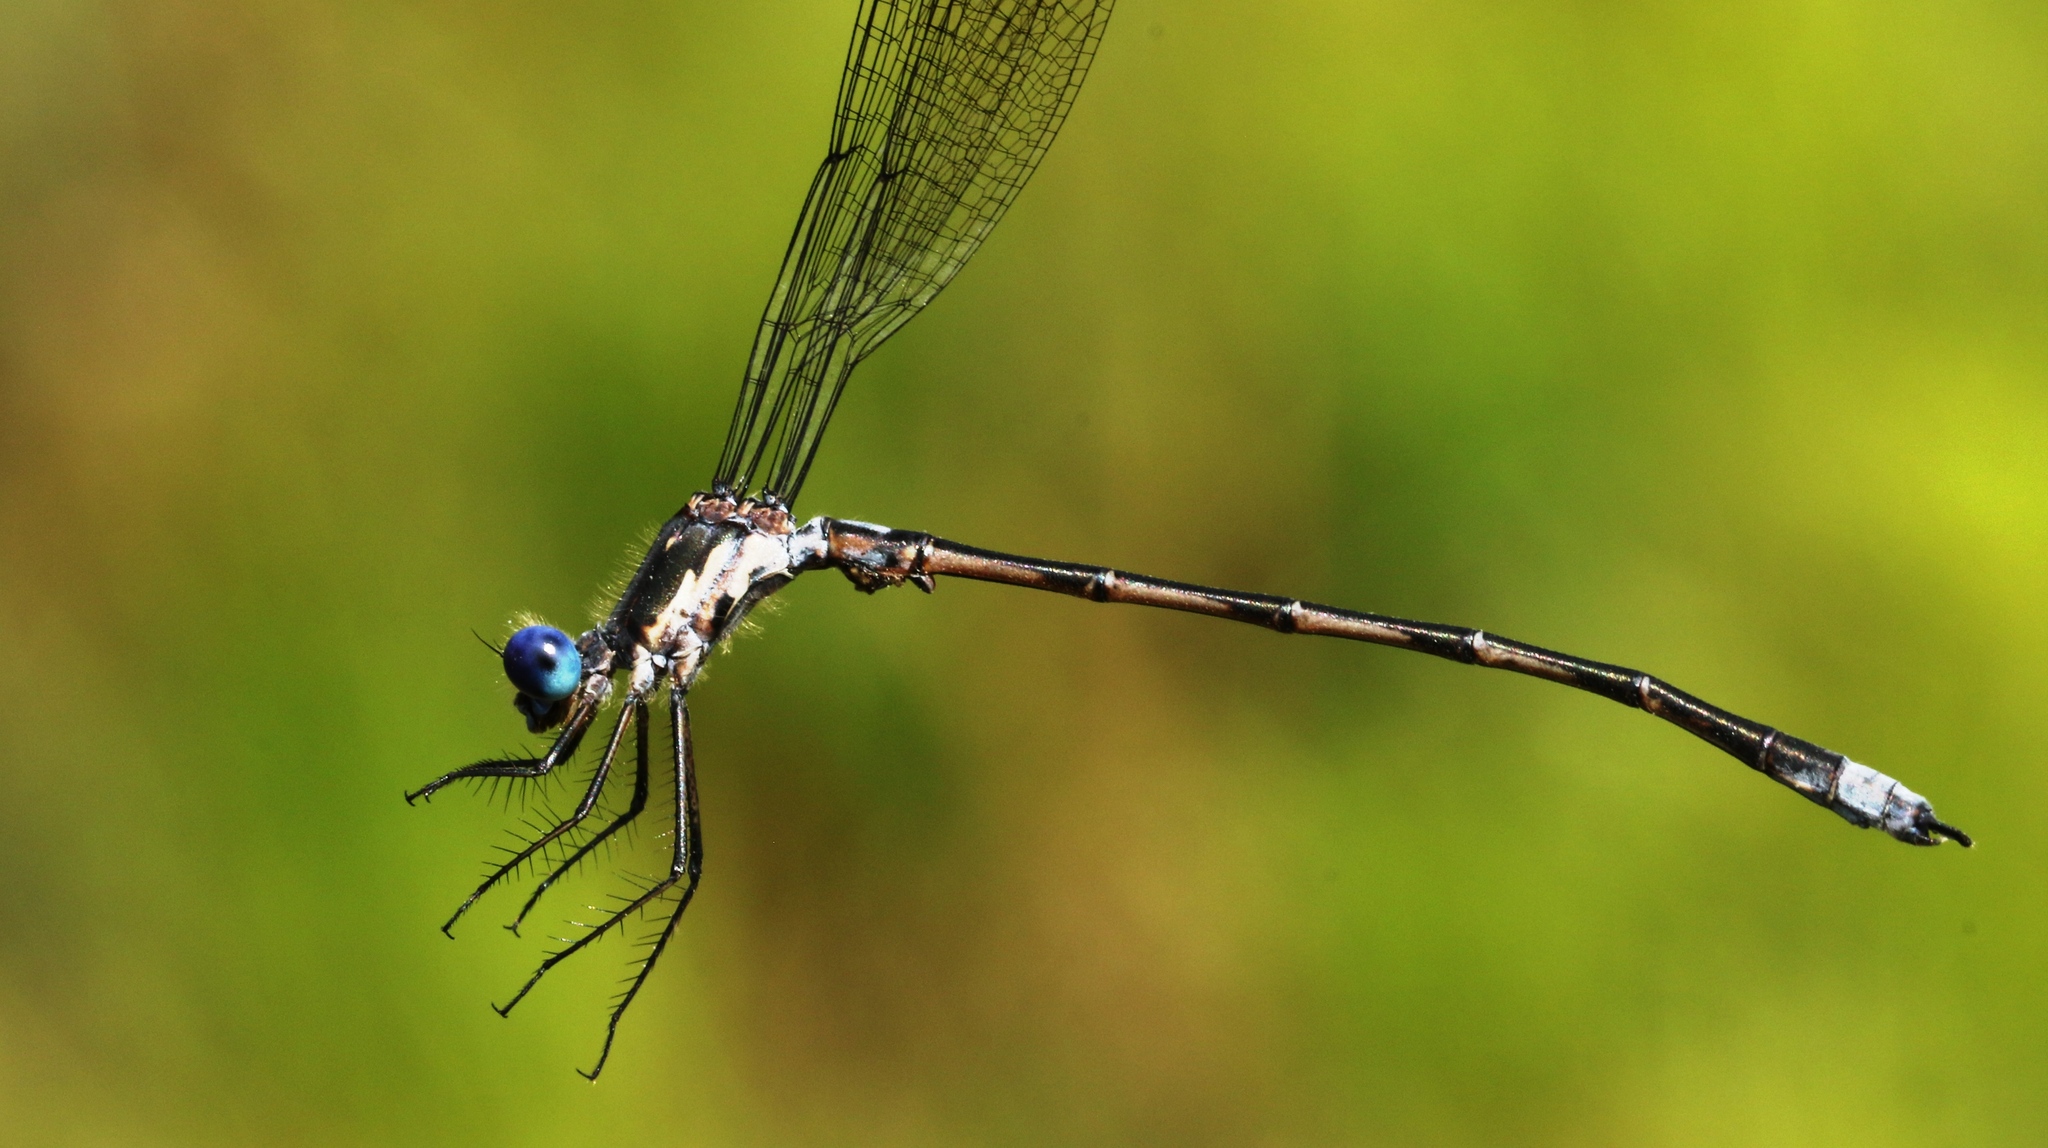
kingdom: Animalia
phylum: Arthropoda
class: Insecta
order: Odonata
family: Lestidae
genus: Lestes
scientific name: Lestes congener
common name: Spotted spreadwing
